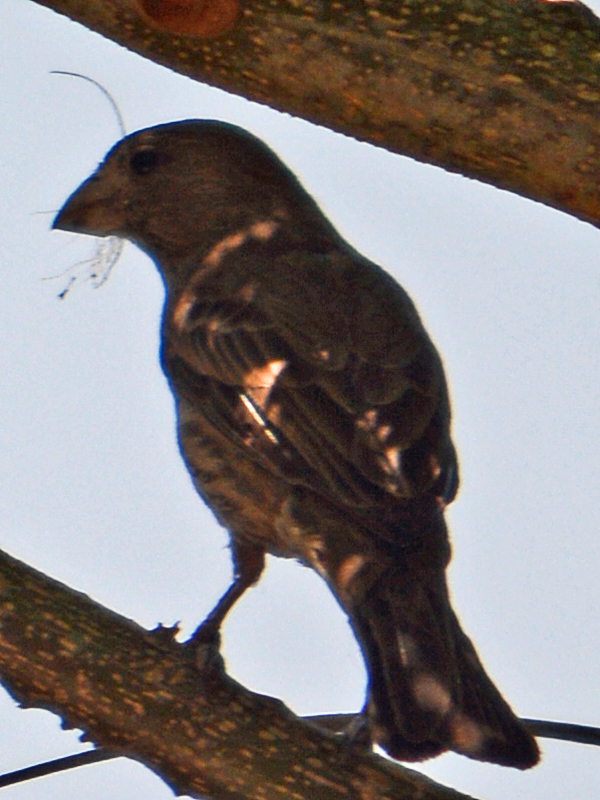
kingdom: Animalia
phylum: Chordata
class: Aves
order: Passeriformes
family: Fringillidae
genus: Haemorhous
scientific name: Haemorhous mexicanus
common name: House finch
